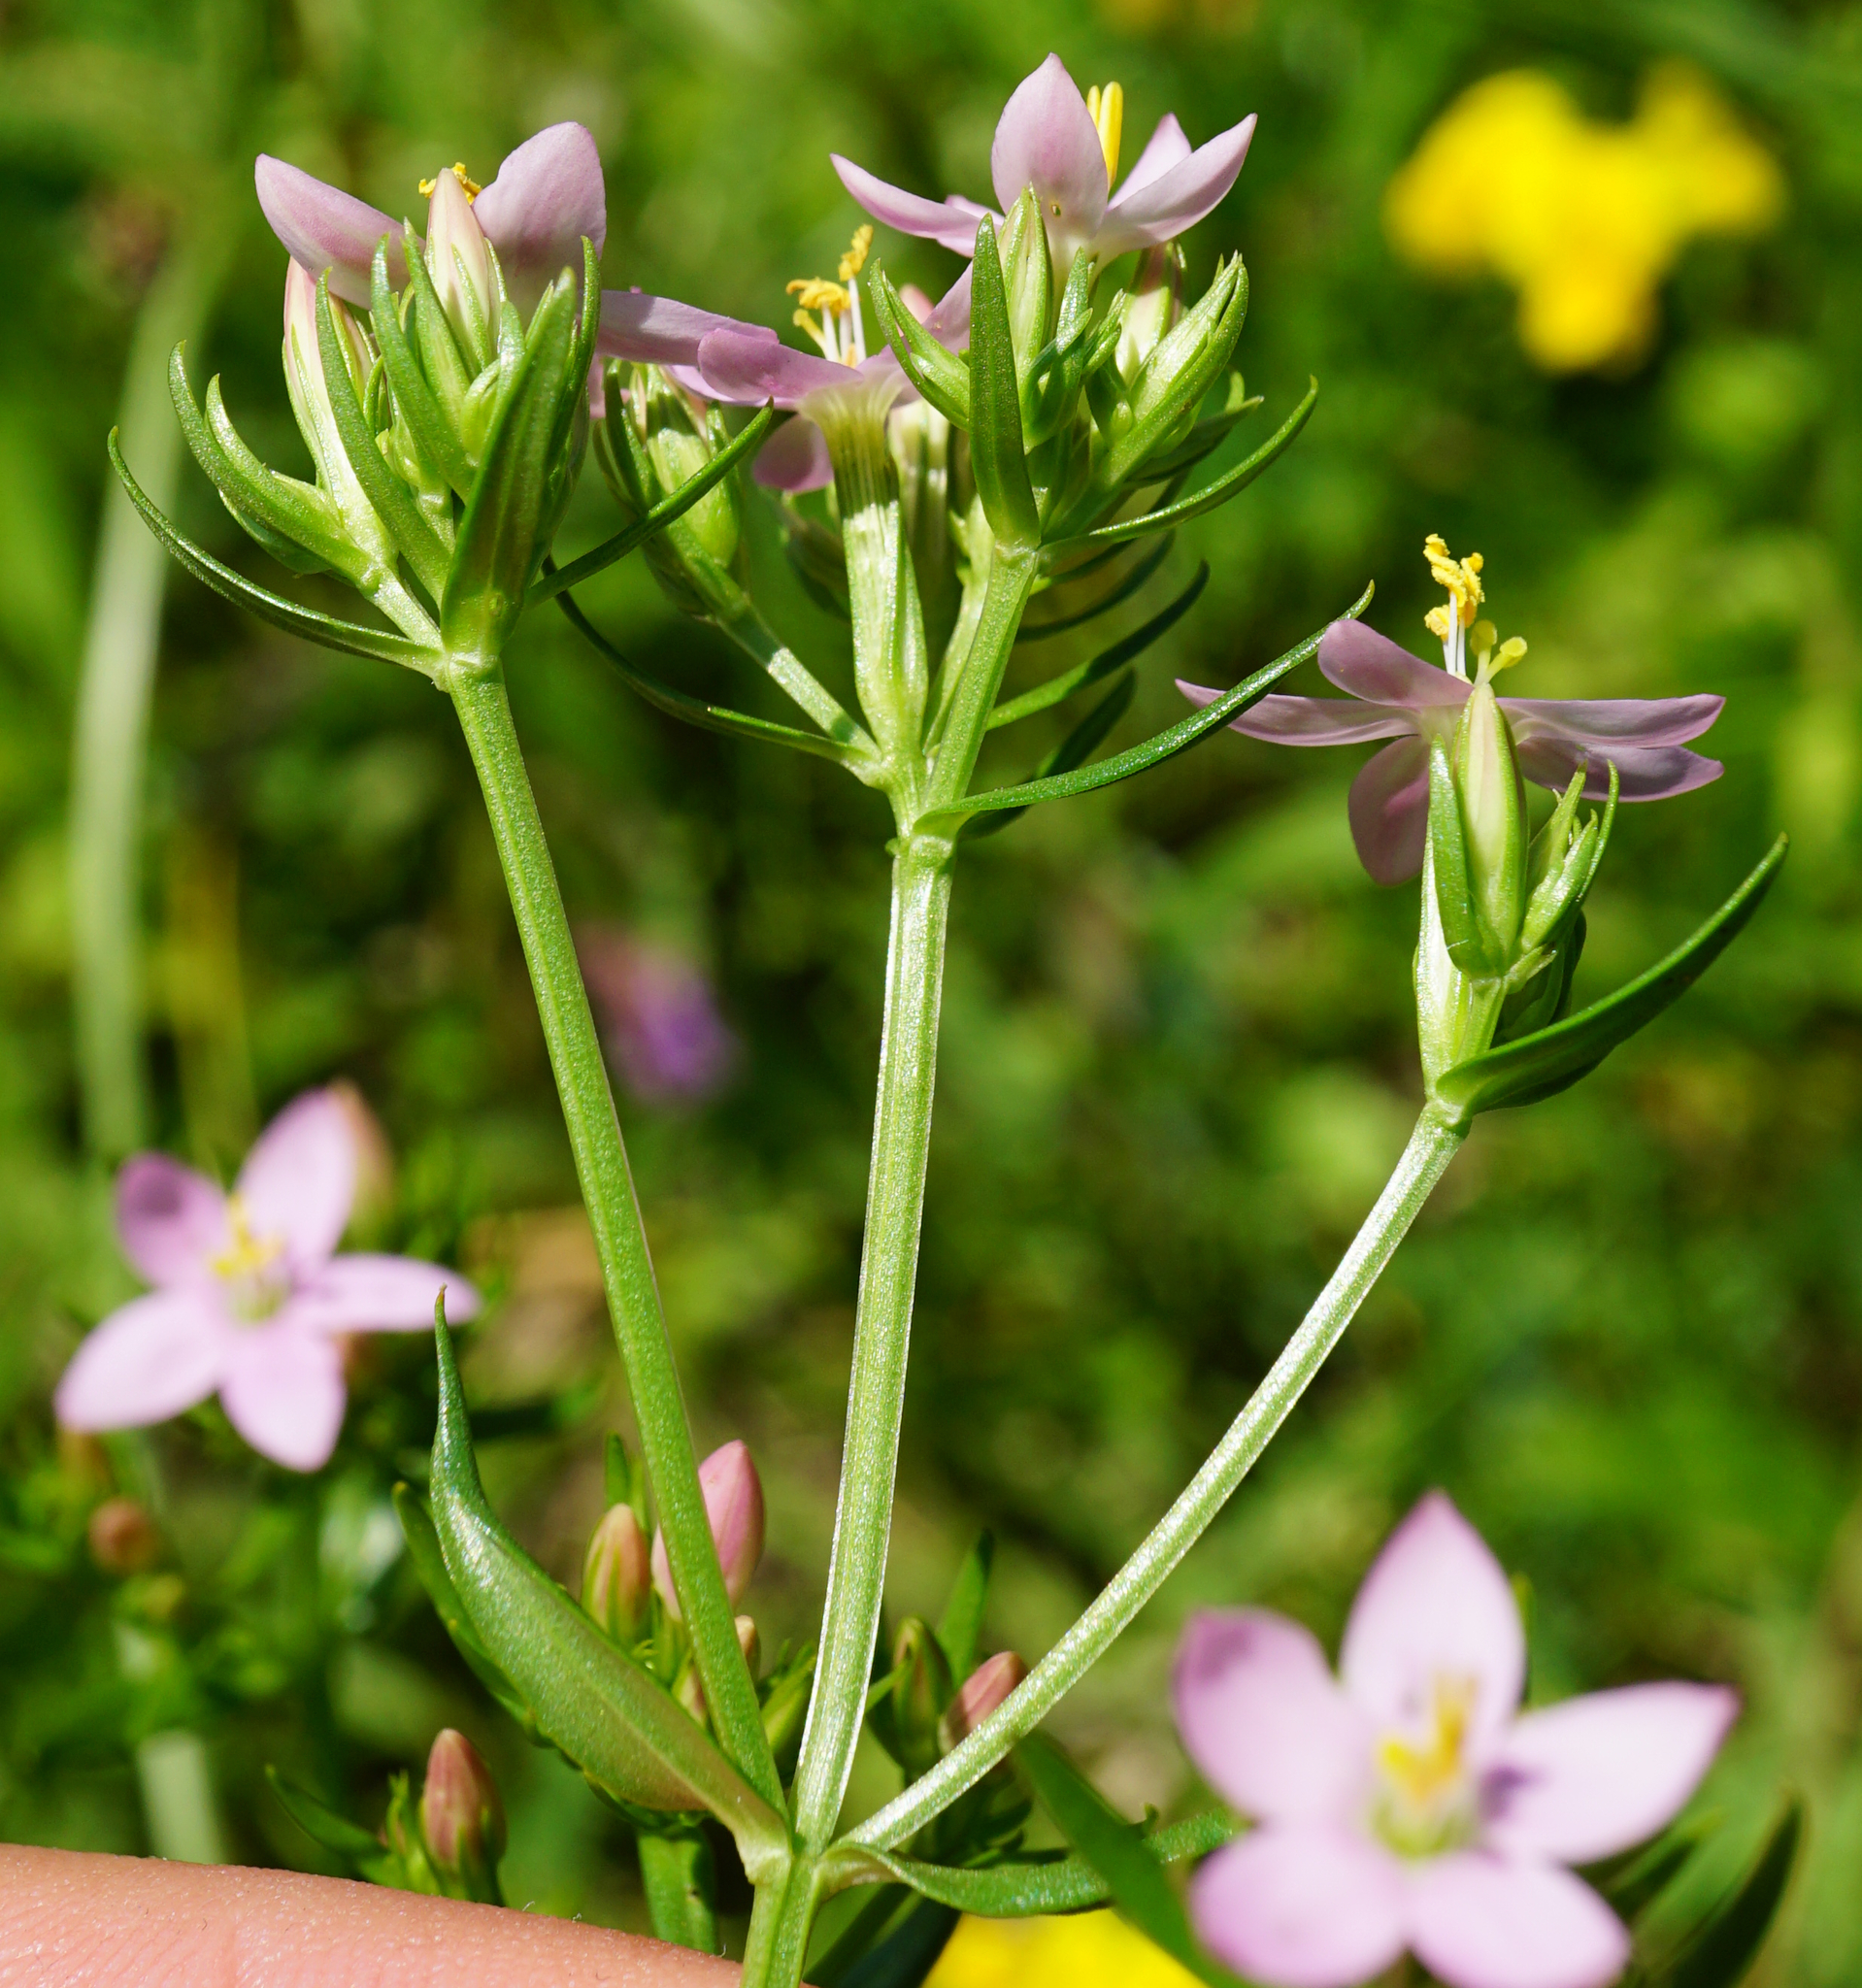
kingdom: Plantae
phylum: Tracheophyta
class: Magnoliopsida
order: Gentianales
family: Gentianaceae
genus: Centaurium
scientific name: Centaurium erythraea
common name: Common centaury
